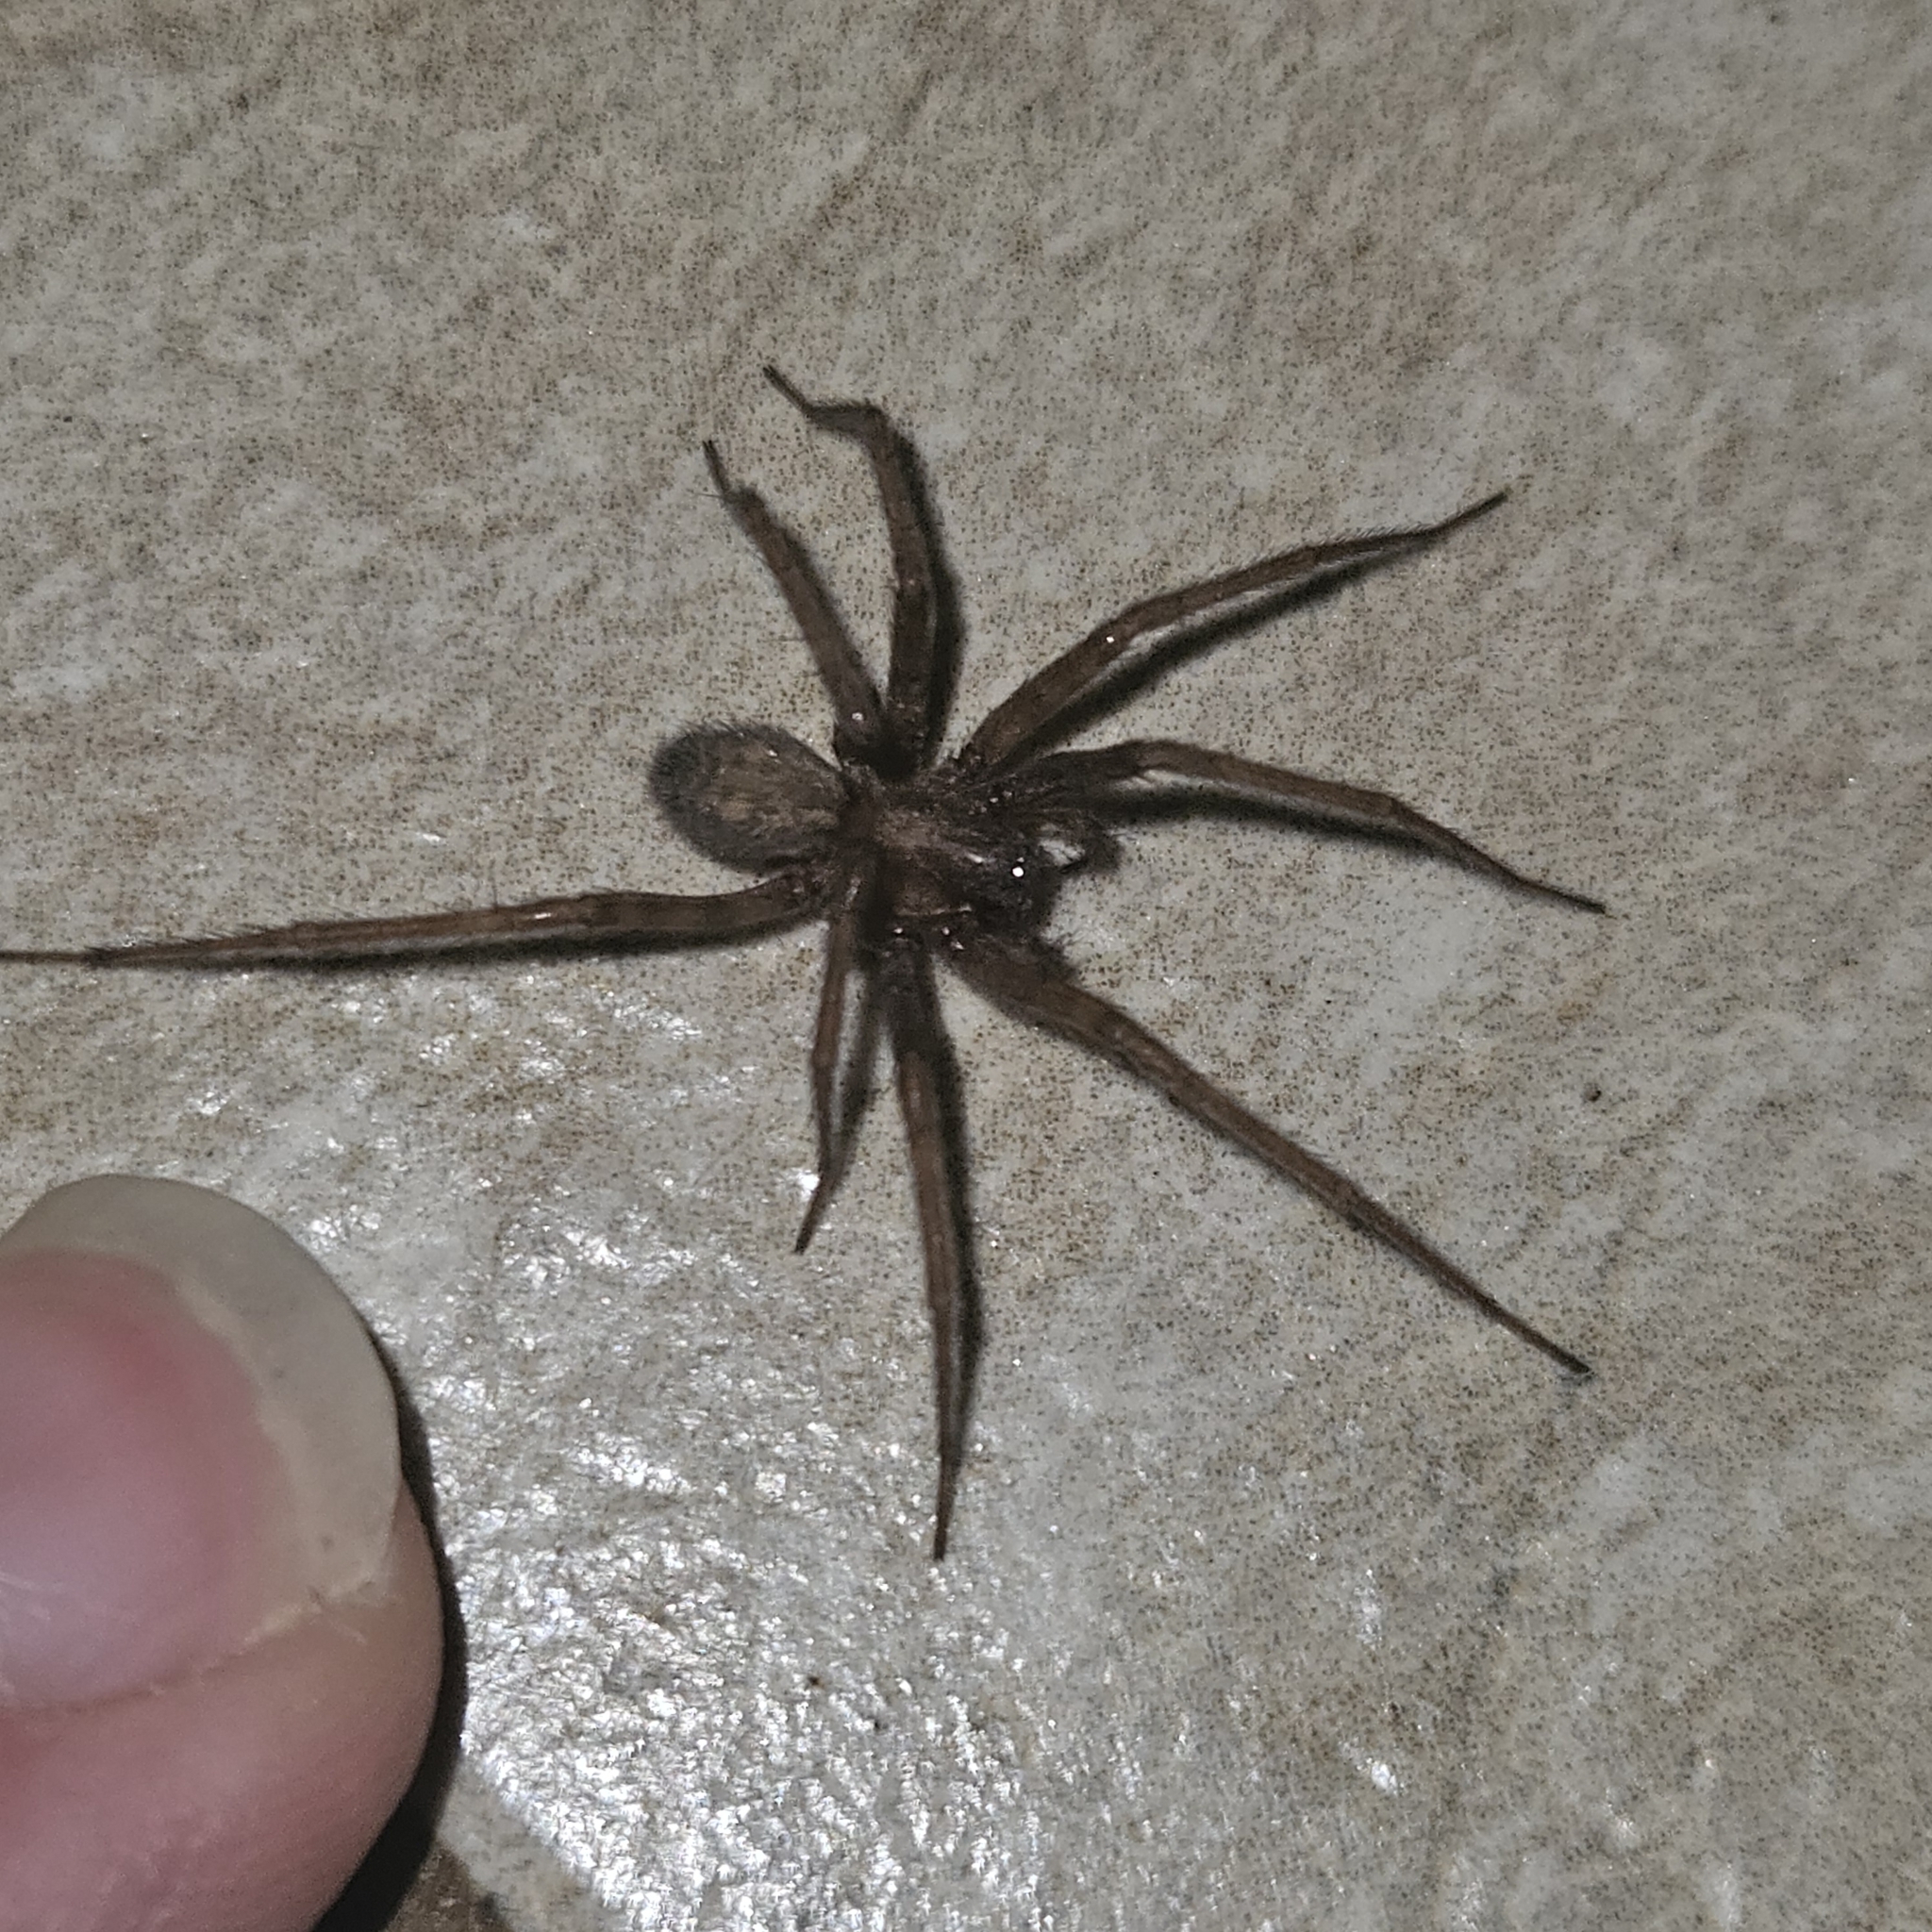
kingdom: Animalia
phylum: Arthropoda
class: Arachnida
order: Araneae
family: Agelenidae
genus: Tegenaria
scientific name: Tegenaria domestica
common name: Barn funnel weaver
